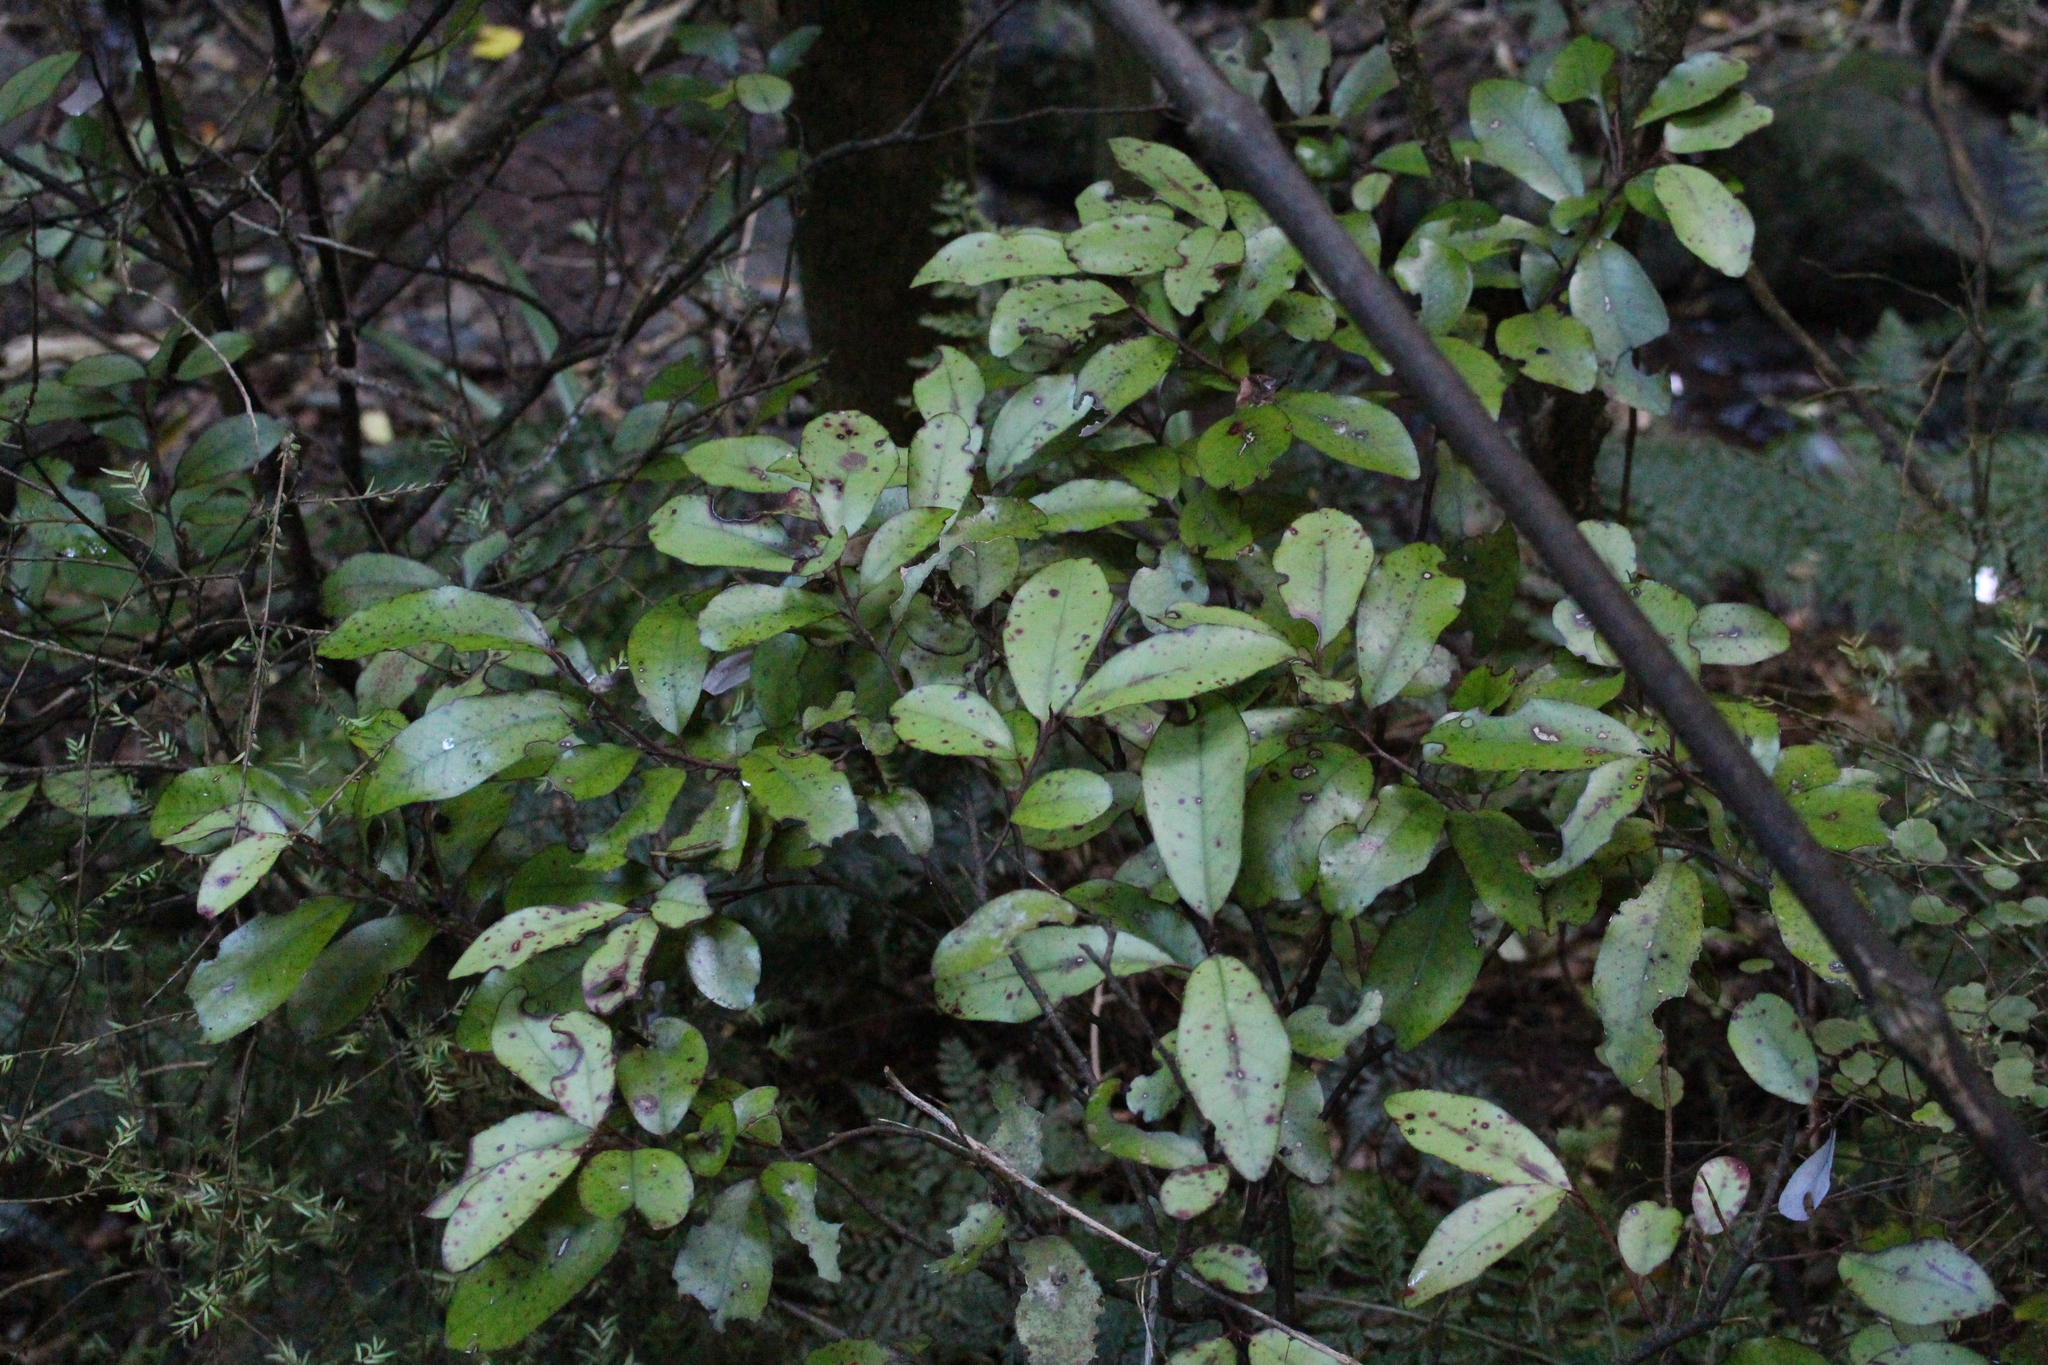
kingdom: Plantae
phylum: Tracheophyta
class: Magnoliopsida
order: Canellales
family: Winteraceae
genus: Pseudowintera
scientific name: Pseudowintera colorata
